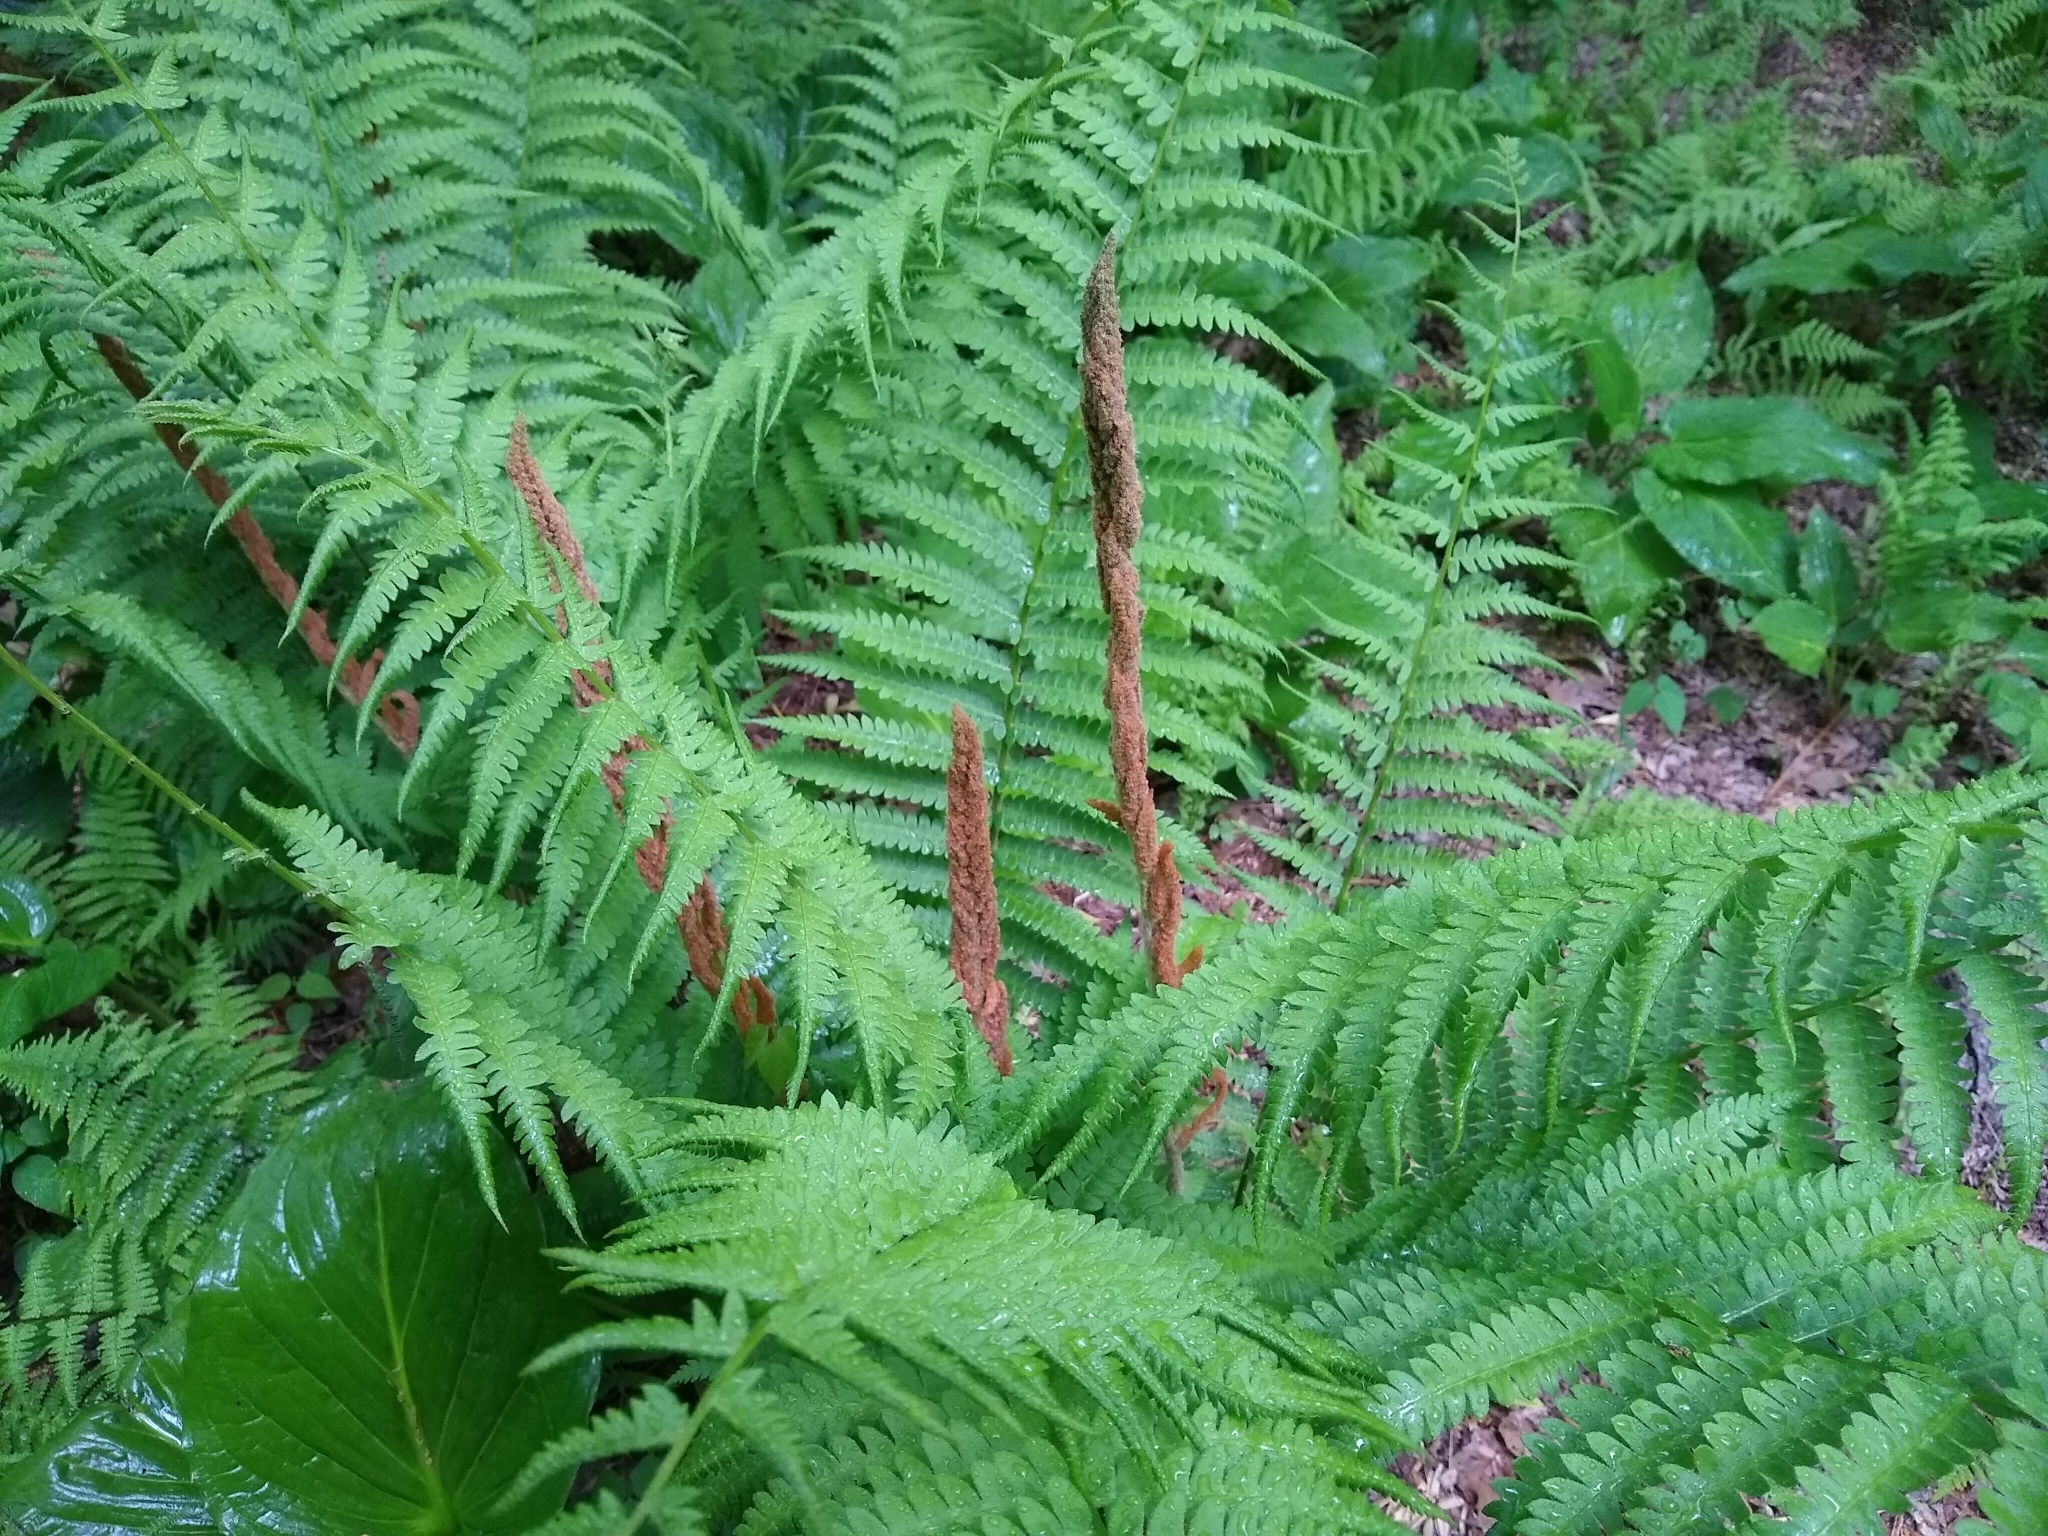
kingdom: Plantae
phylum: Tracheophyta
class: Polypodiopsida
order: Osmundales
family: Osmundaceae
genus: Osmundastrum
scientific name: Osmundastrum cinnamomeum
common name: Cinnamon fern
